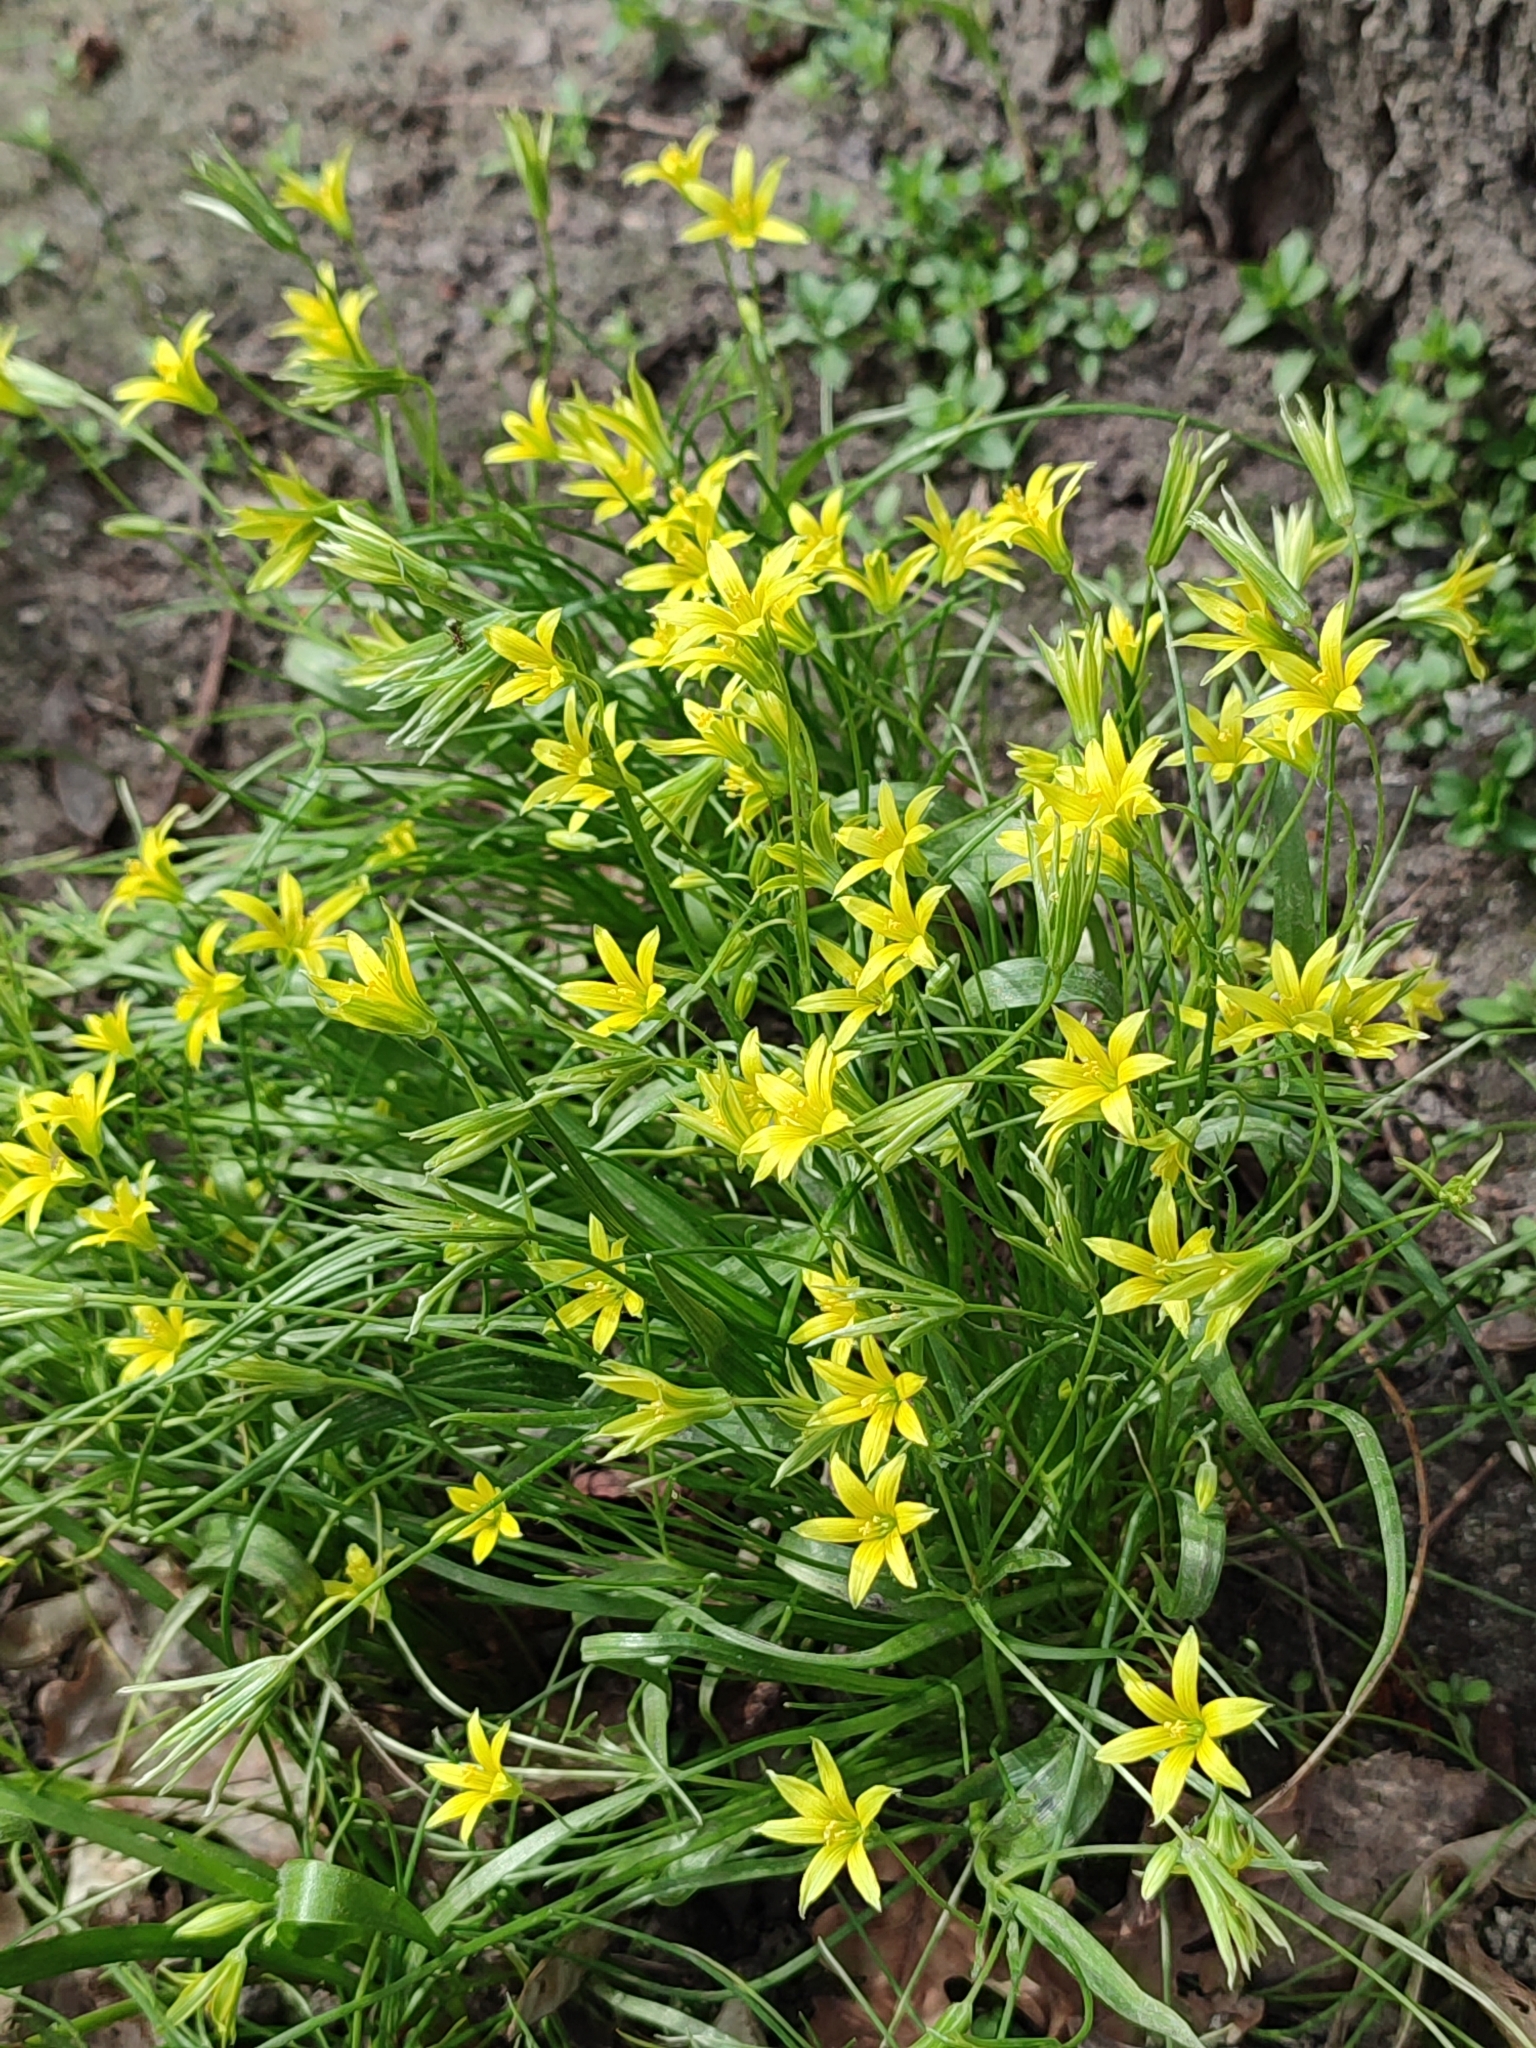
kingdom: Plantae
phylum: Tracheophyta
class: Liliopsida
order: Liliales
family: Liliaceae
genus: Gagea
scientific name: Gagea minima
